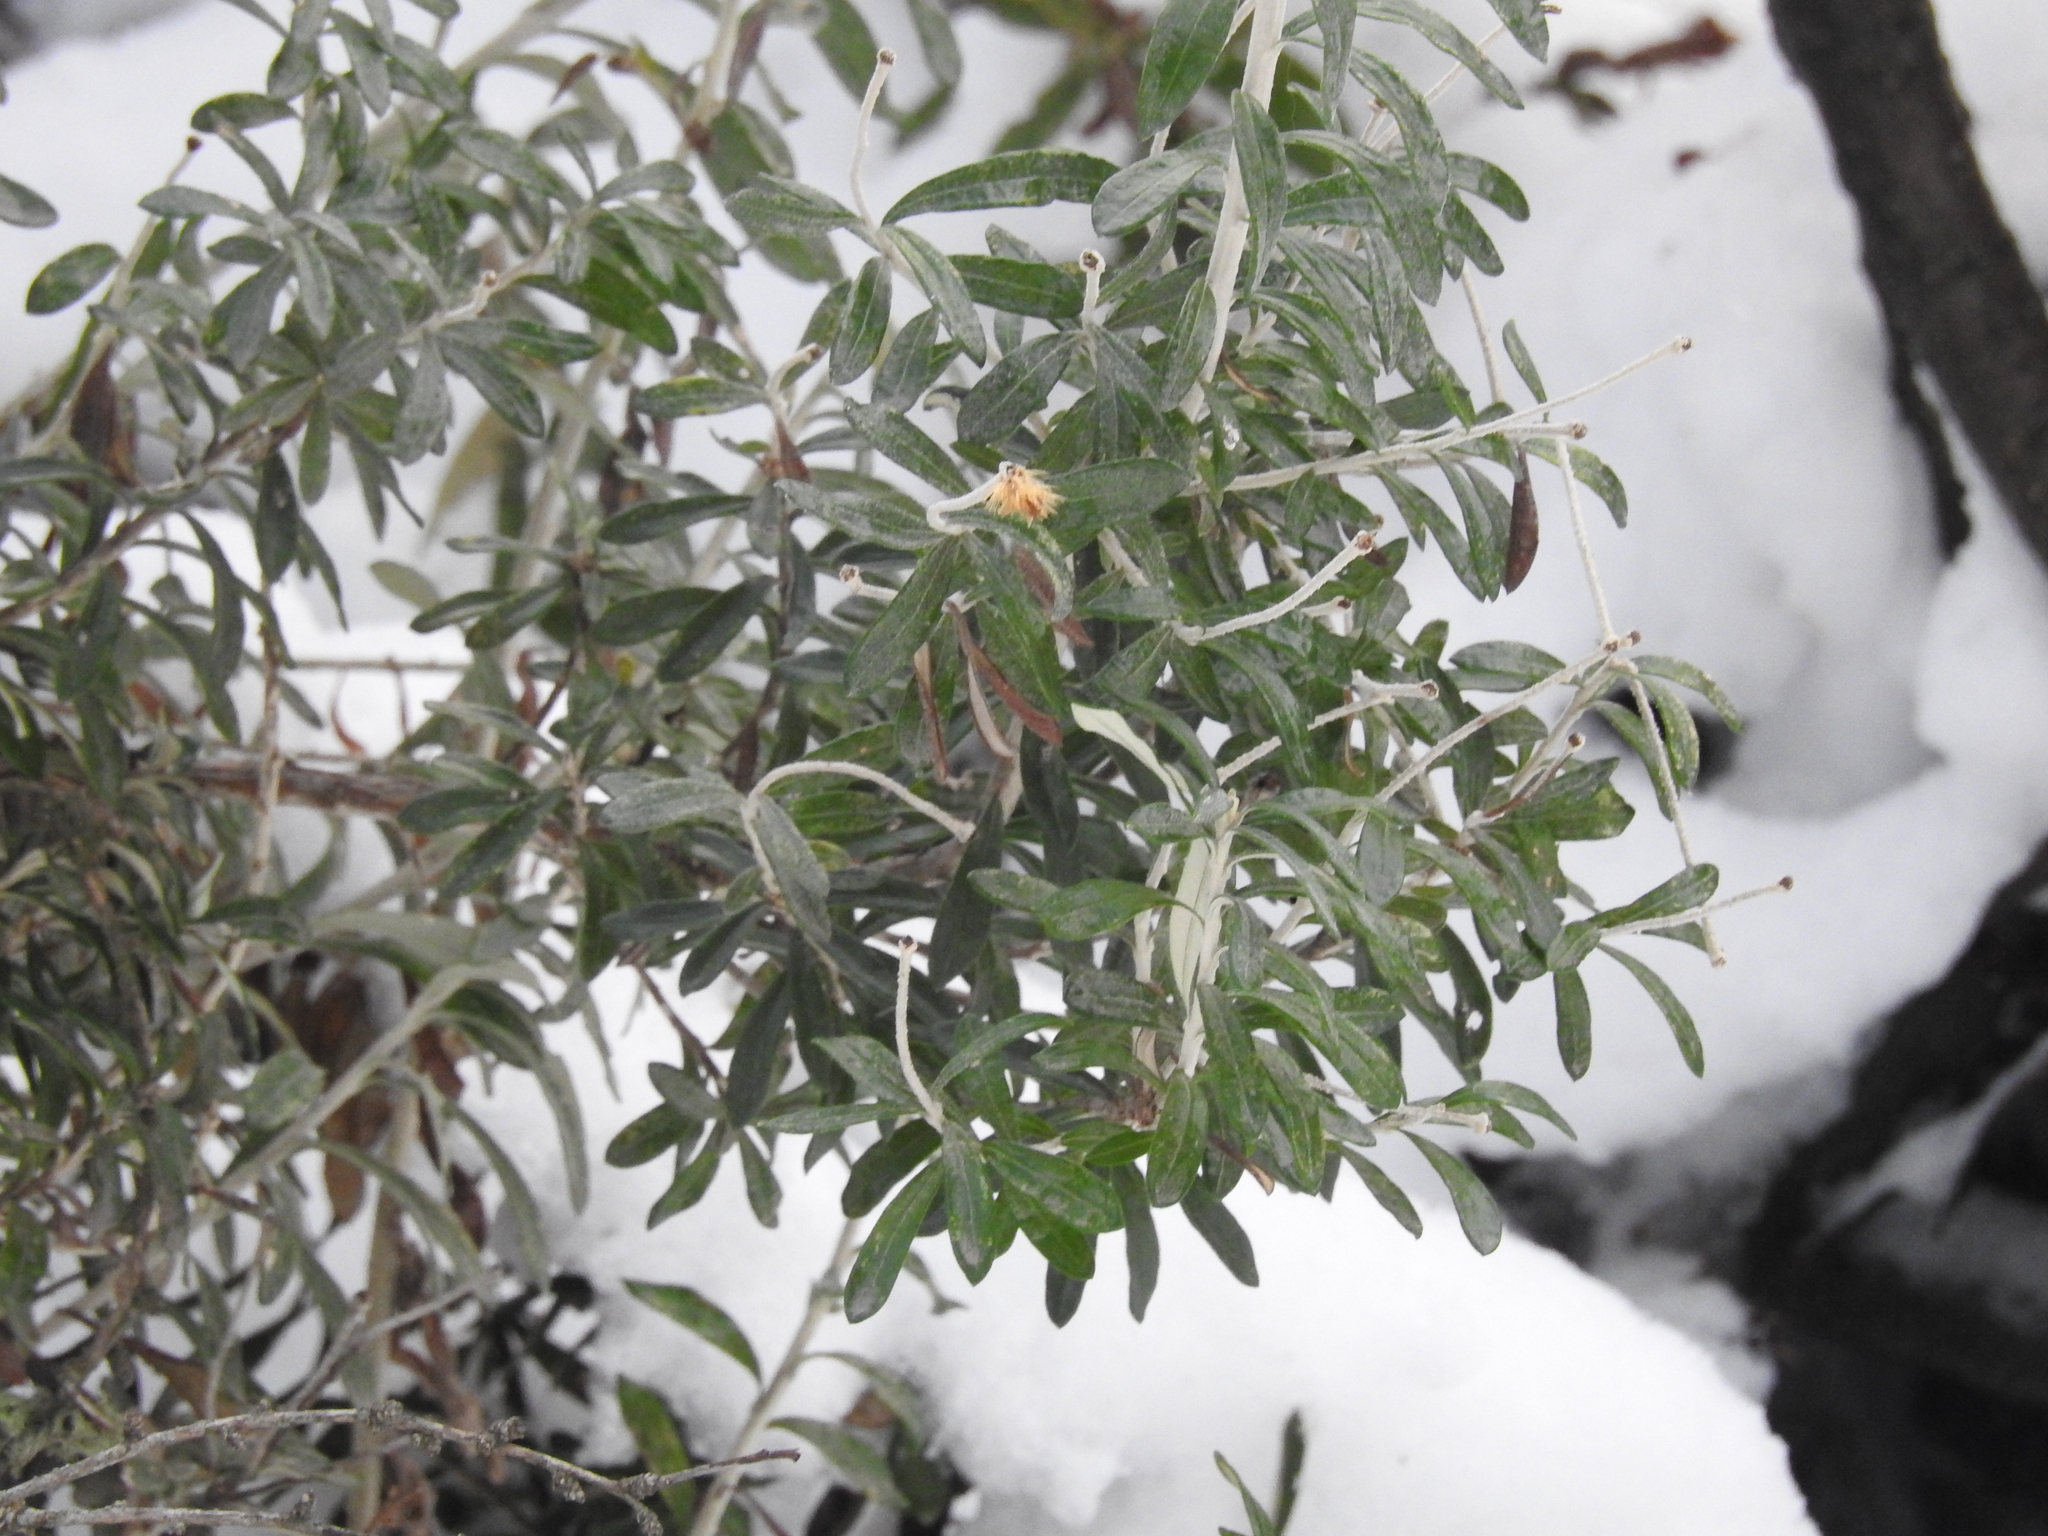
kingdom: Plantae
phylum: Tracheophyta
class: Magnoliopsida
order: Asterales
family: Asteraceae
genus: Chiliotrichum
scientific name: Chiliotrichum diffusum
